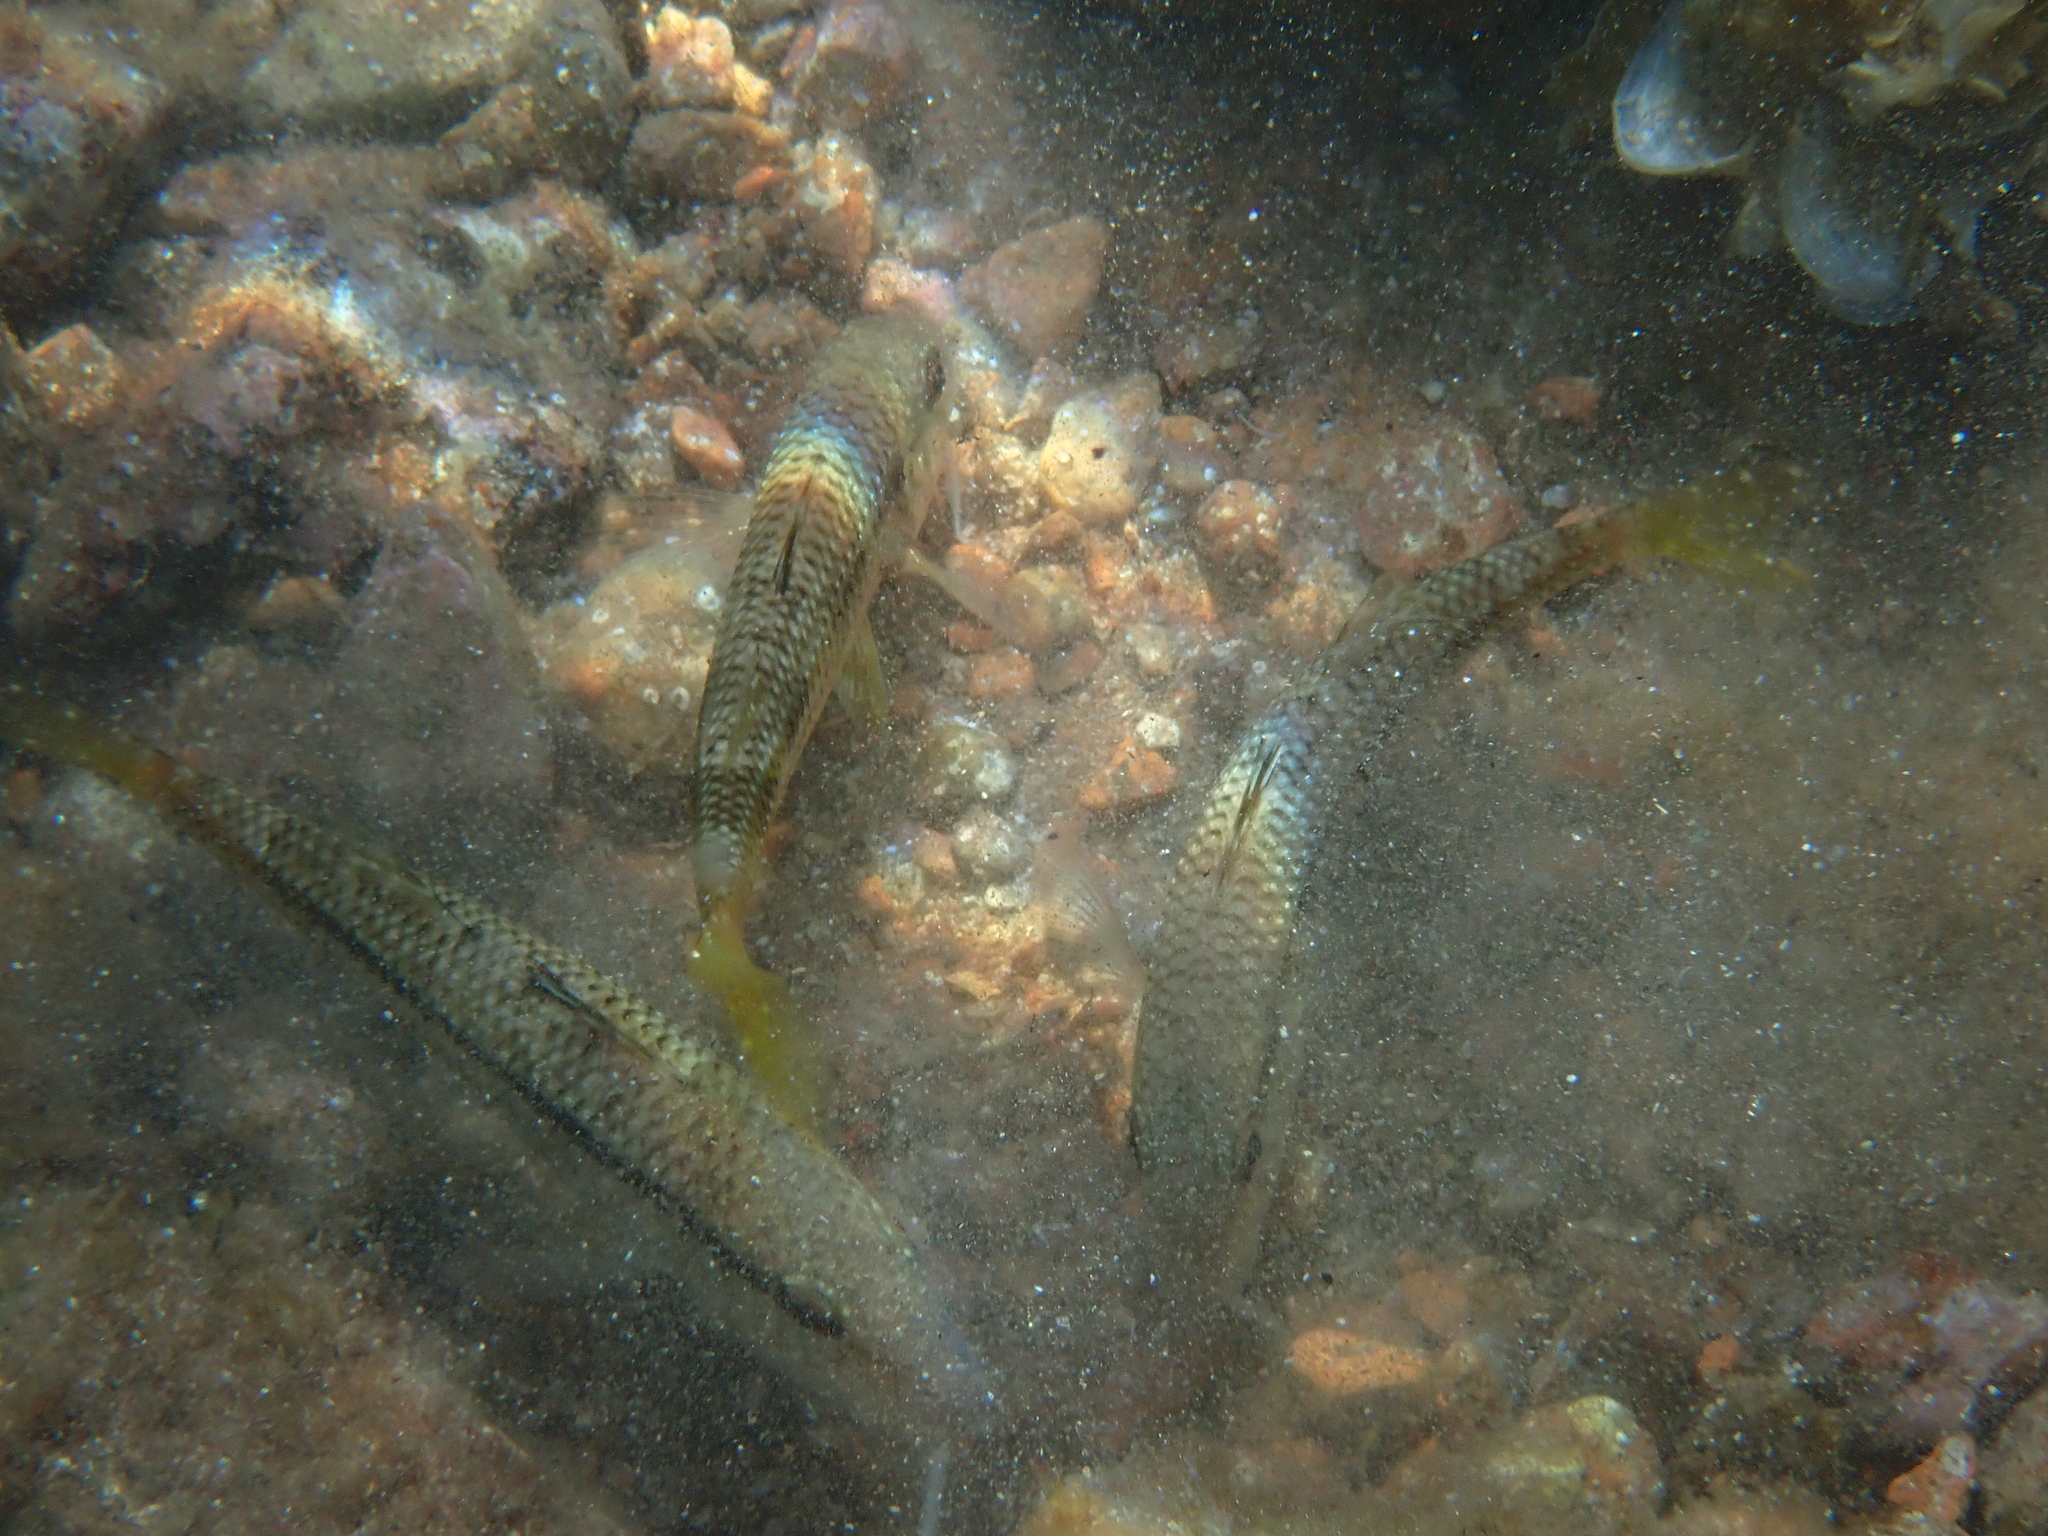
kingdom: Animalia
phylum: Chordata
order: Perciformes
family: Mullidae
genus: Mullus
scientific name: Mullus surmuletus
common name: Red mullet
